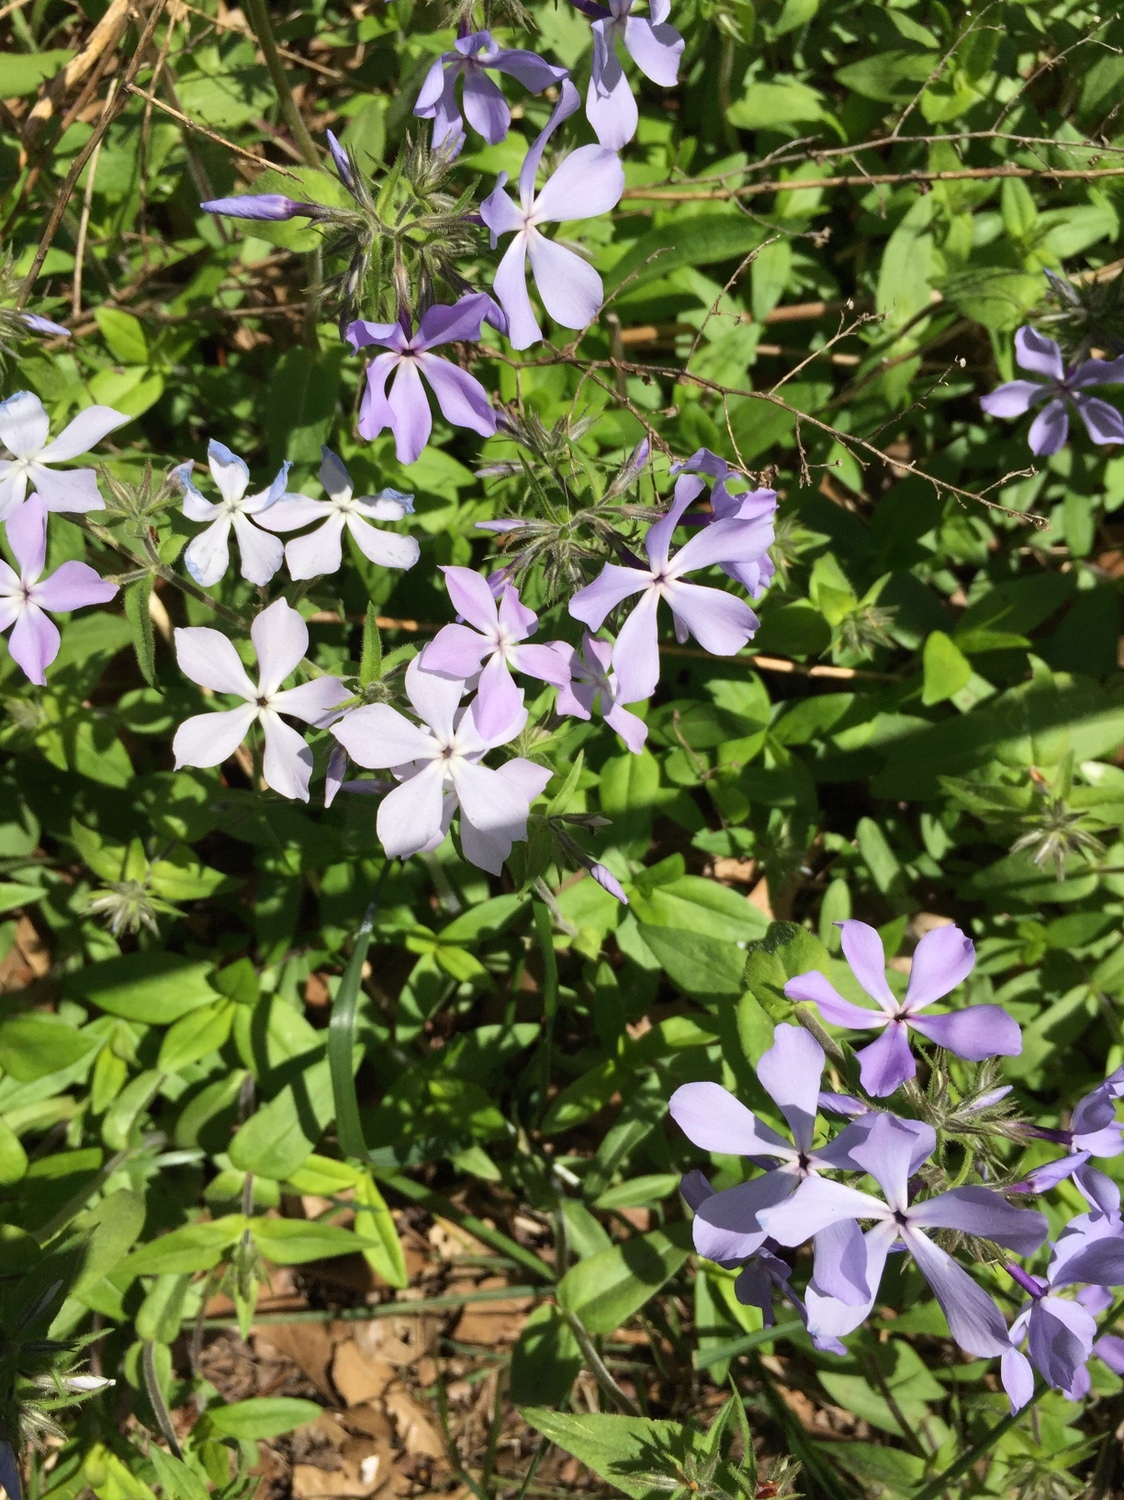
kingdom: Plantae
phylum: Tracheophyta
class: Magnoliopsida
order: Ericales
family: Polemoniaceae
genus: Phlox
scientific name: Phlox divaricata
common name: Blue phlox
